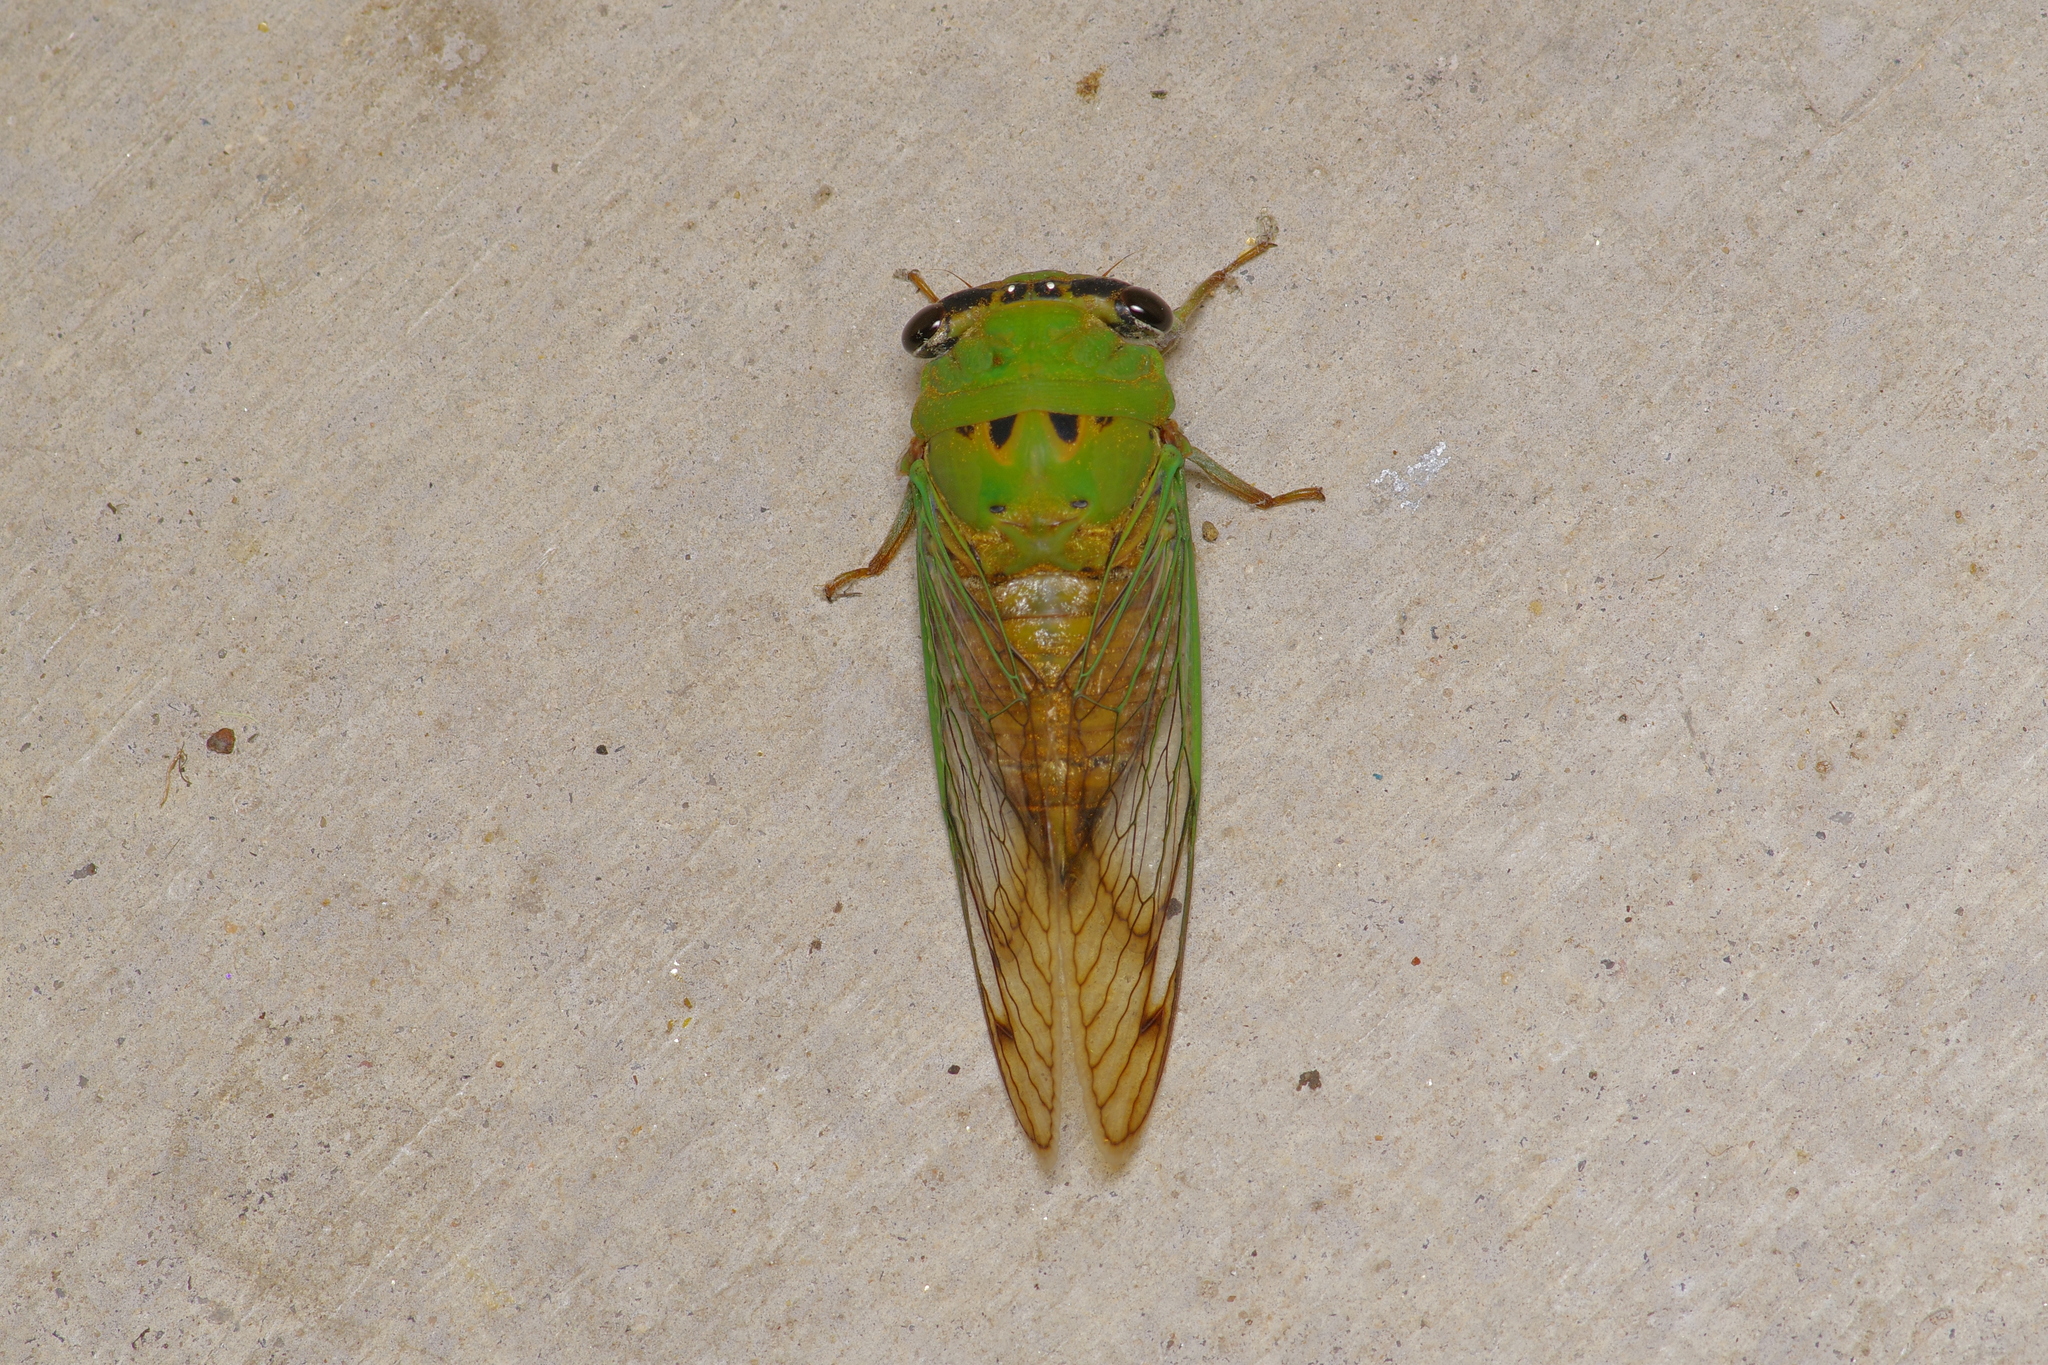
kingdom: Animalia
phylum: Arthropoda
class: Insecta
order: Hemiptera
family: Cicadidae
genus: Neotibicen
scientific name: Neotibicen superbus
